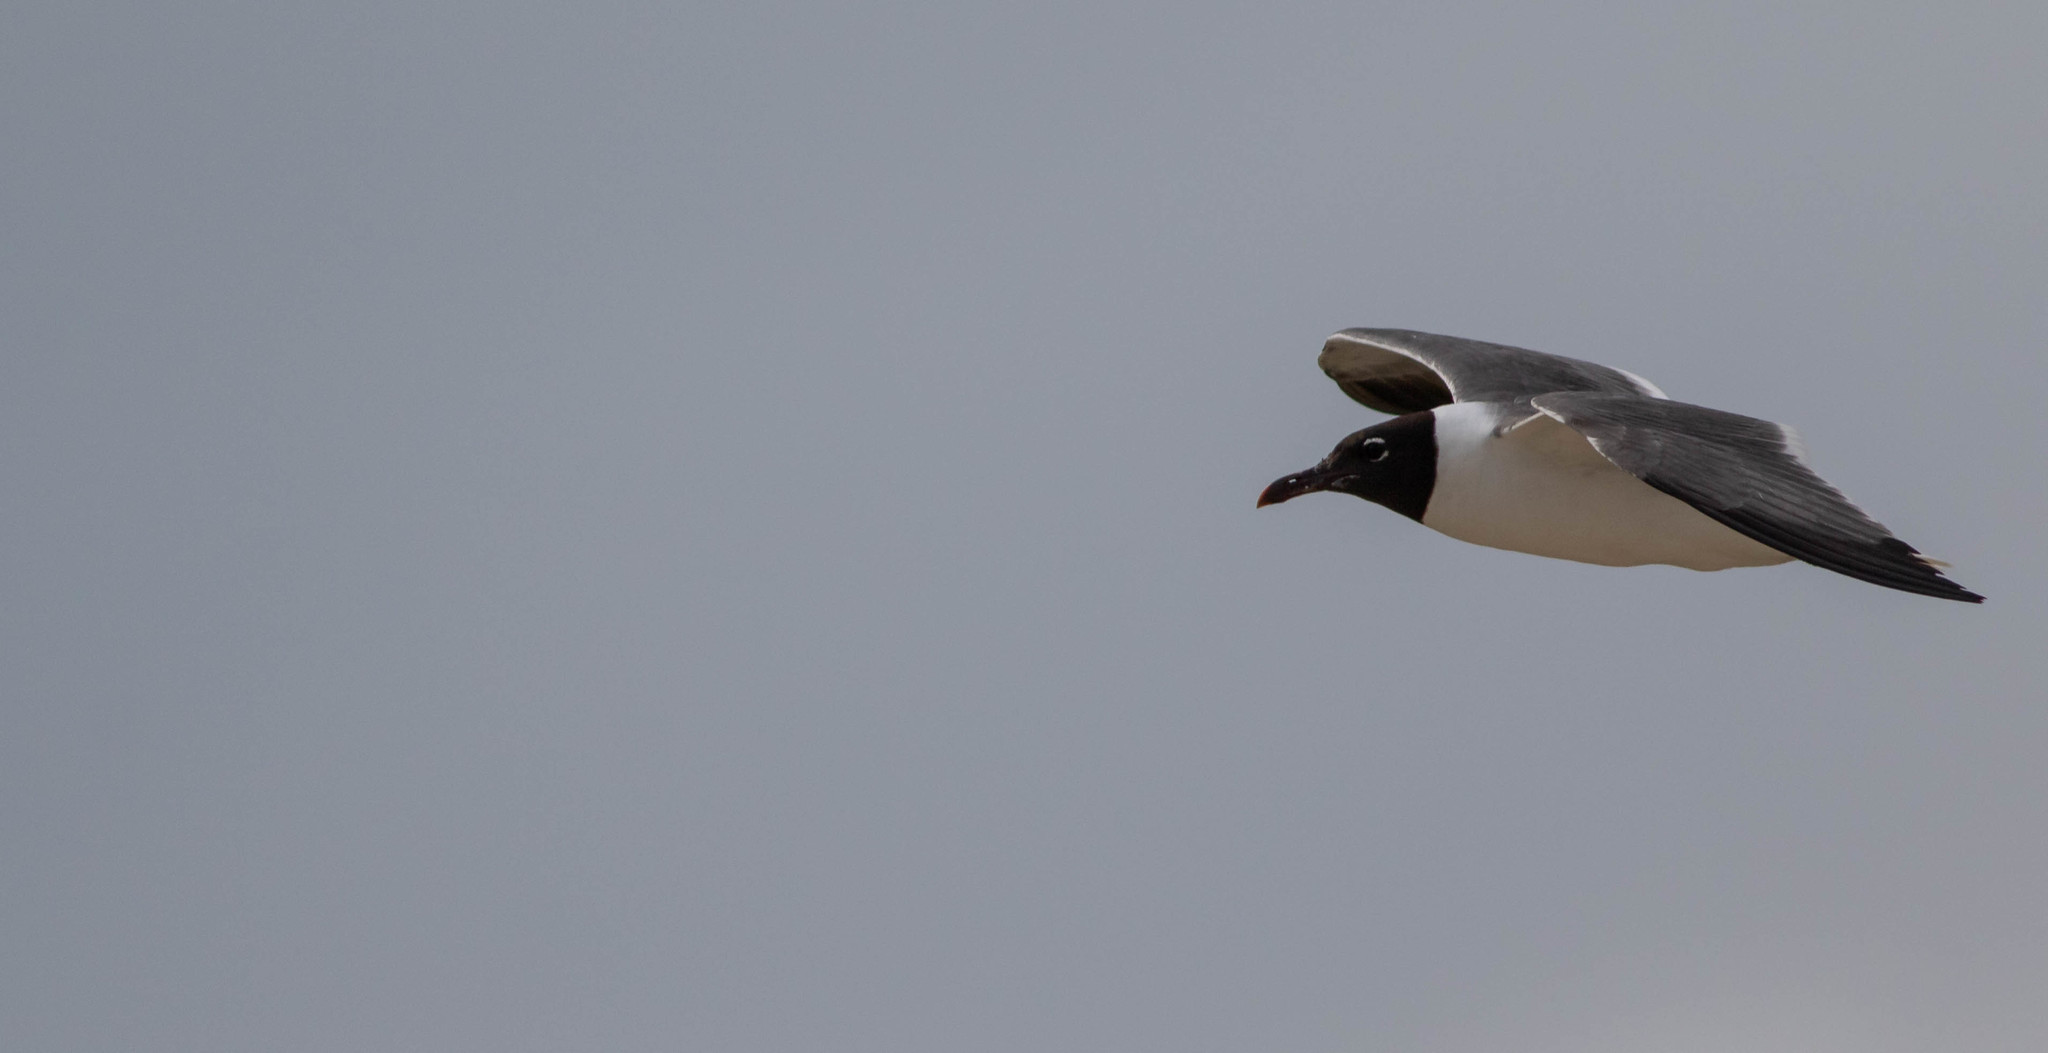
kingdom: Animalia
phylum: Chordata
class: Aves
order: Charadriiformes
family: Laridae
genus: Leucophaeus
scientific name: Leucophaeus atricilla
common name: Laughing gull
